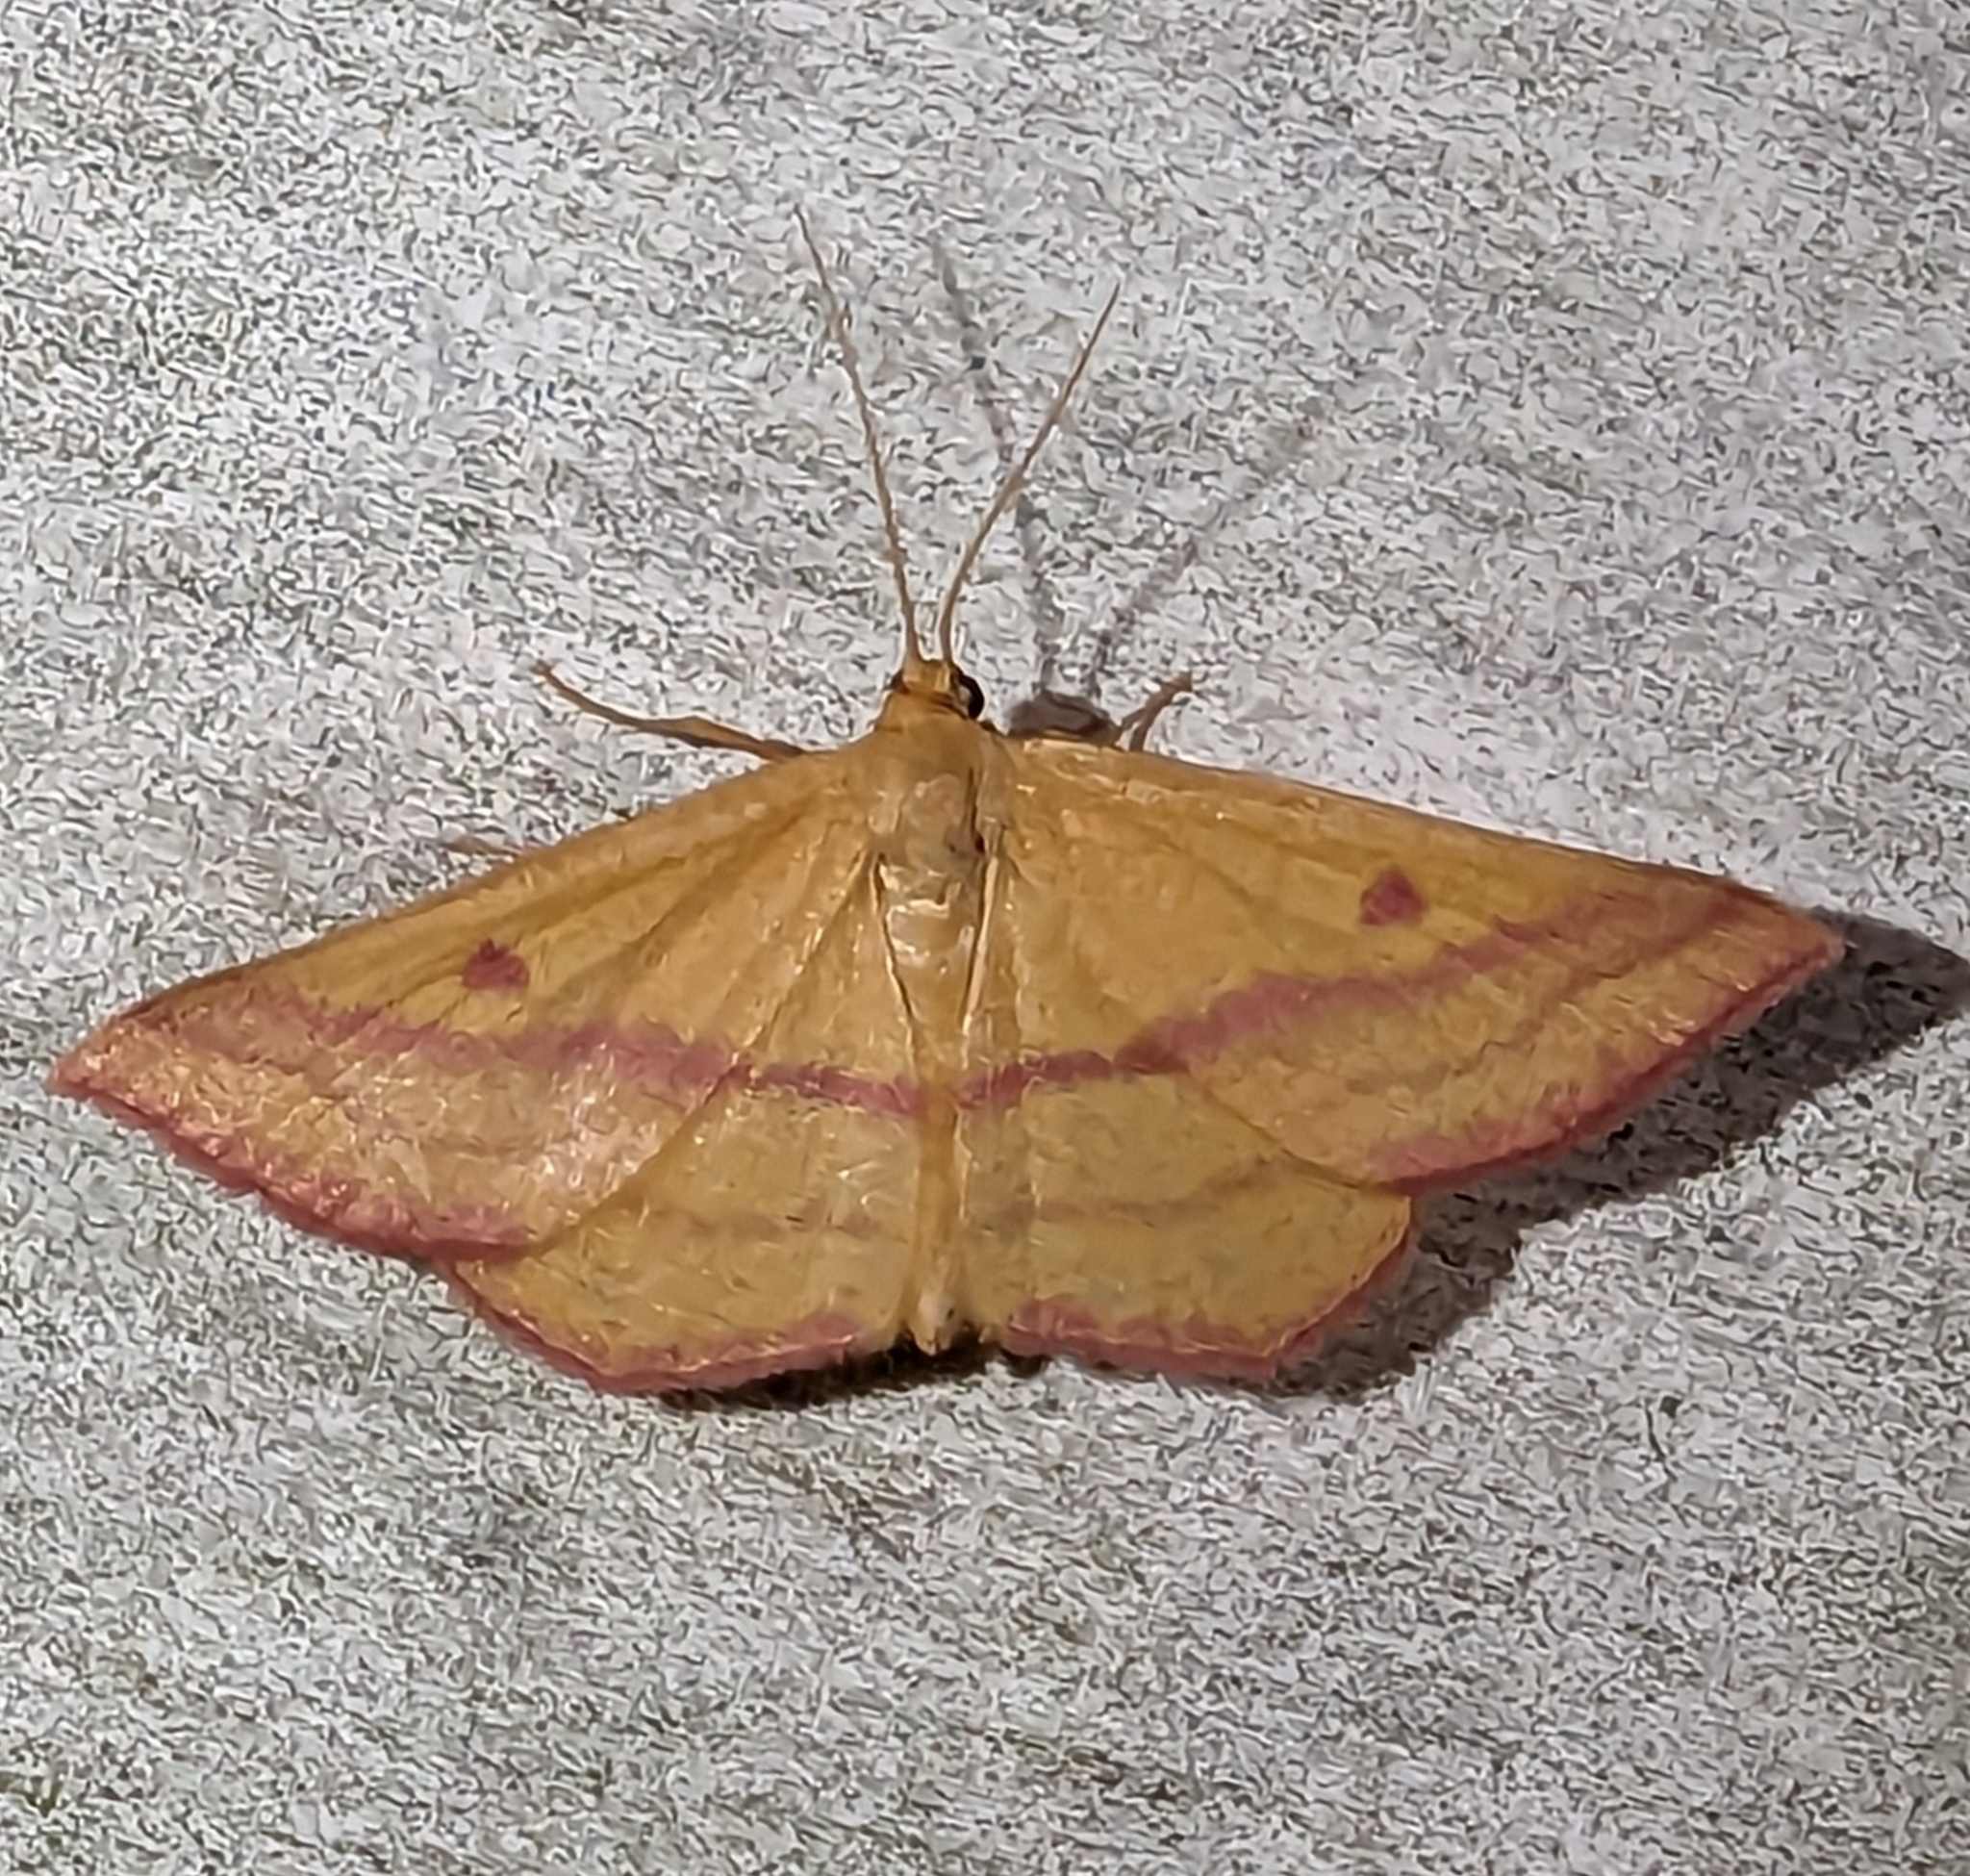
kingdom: Animalia
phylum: Arthropoda
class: Insecta
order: Lepidoptera
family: Geometridae
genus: Haematopis
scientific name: Haematopis grataria
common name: Chickweed geometer
